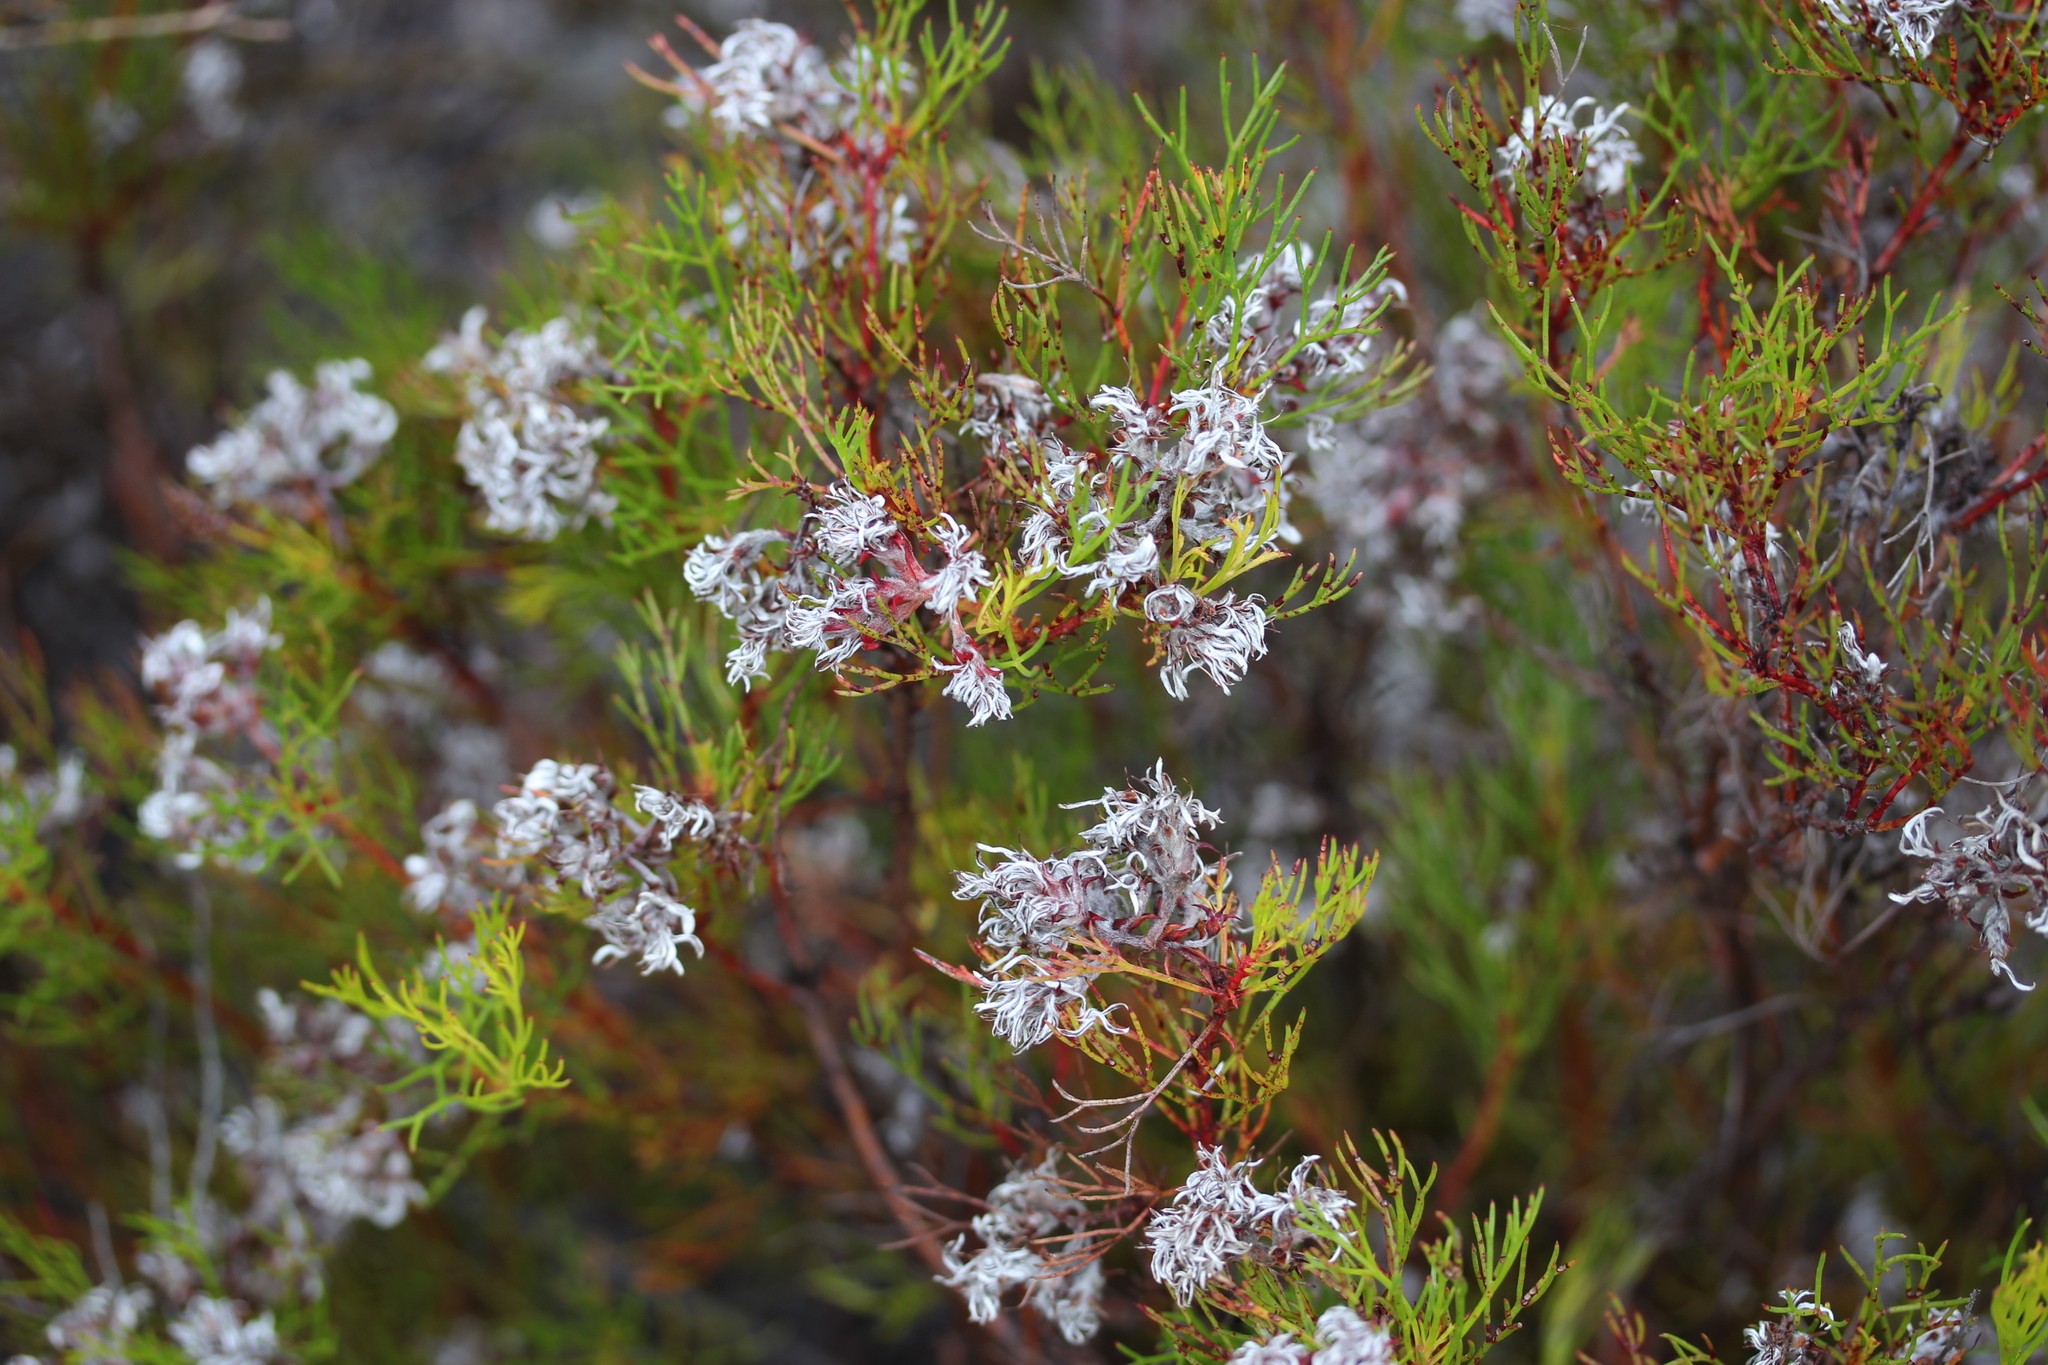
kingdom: Plantae
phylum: Tracheophyta
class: Magnoliopsida
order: Proteales
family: Proteaceae
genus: Serruria
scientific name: Serruria rubricaulis
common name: Red-stem spiderhead
